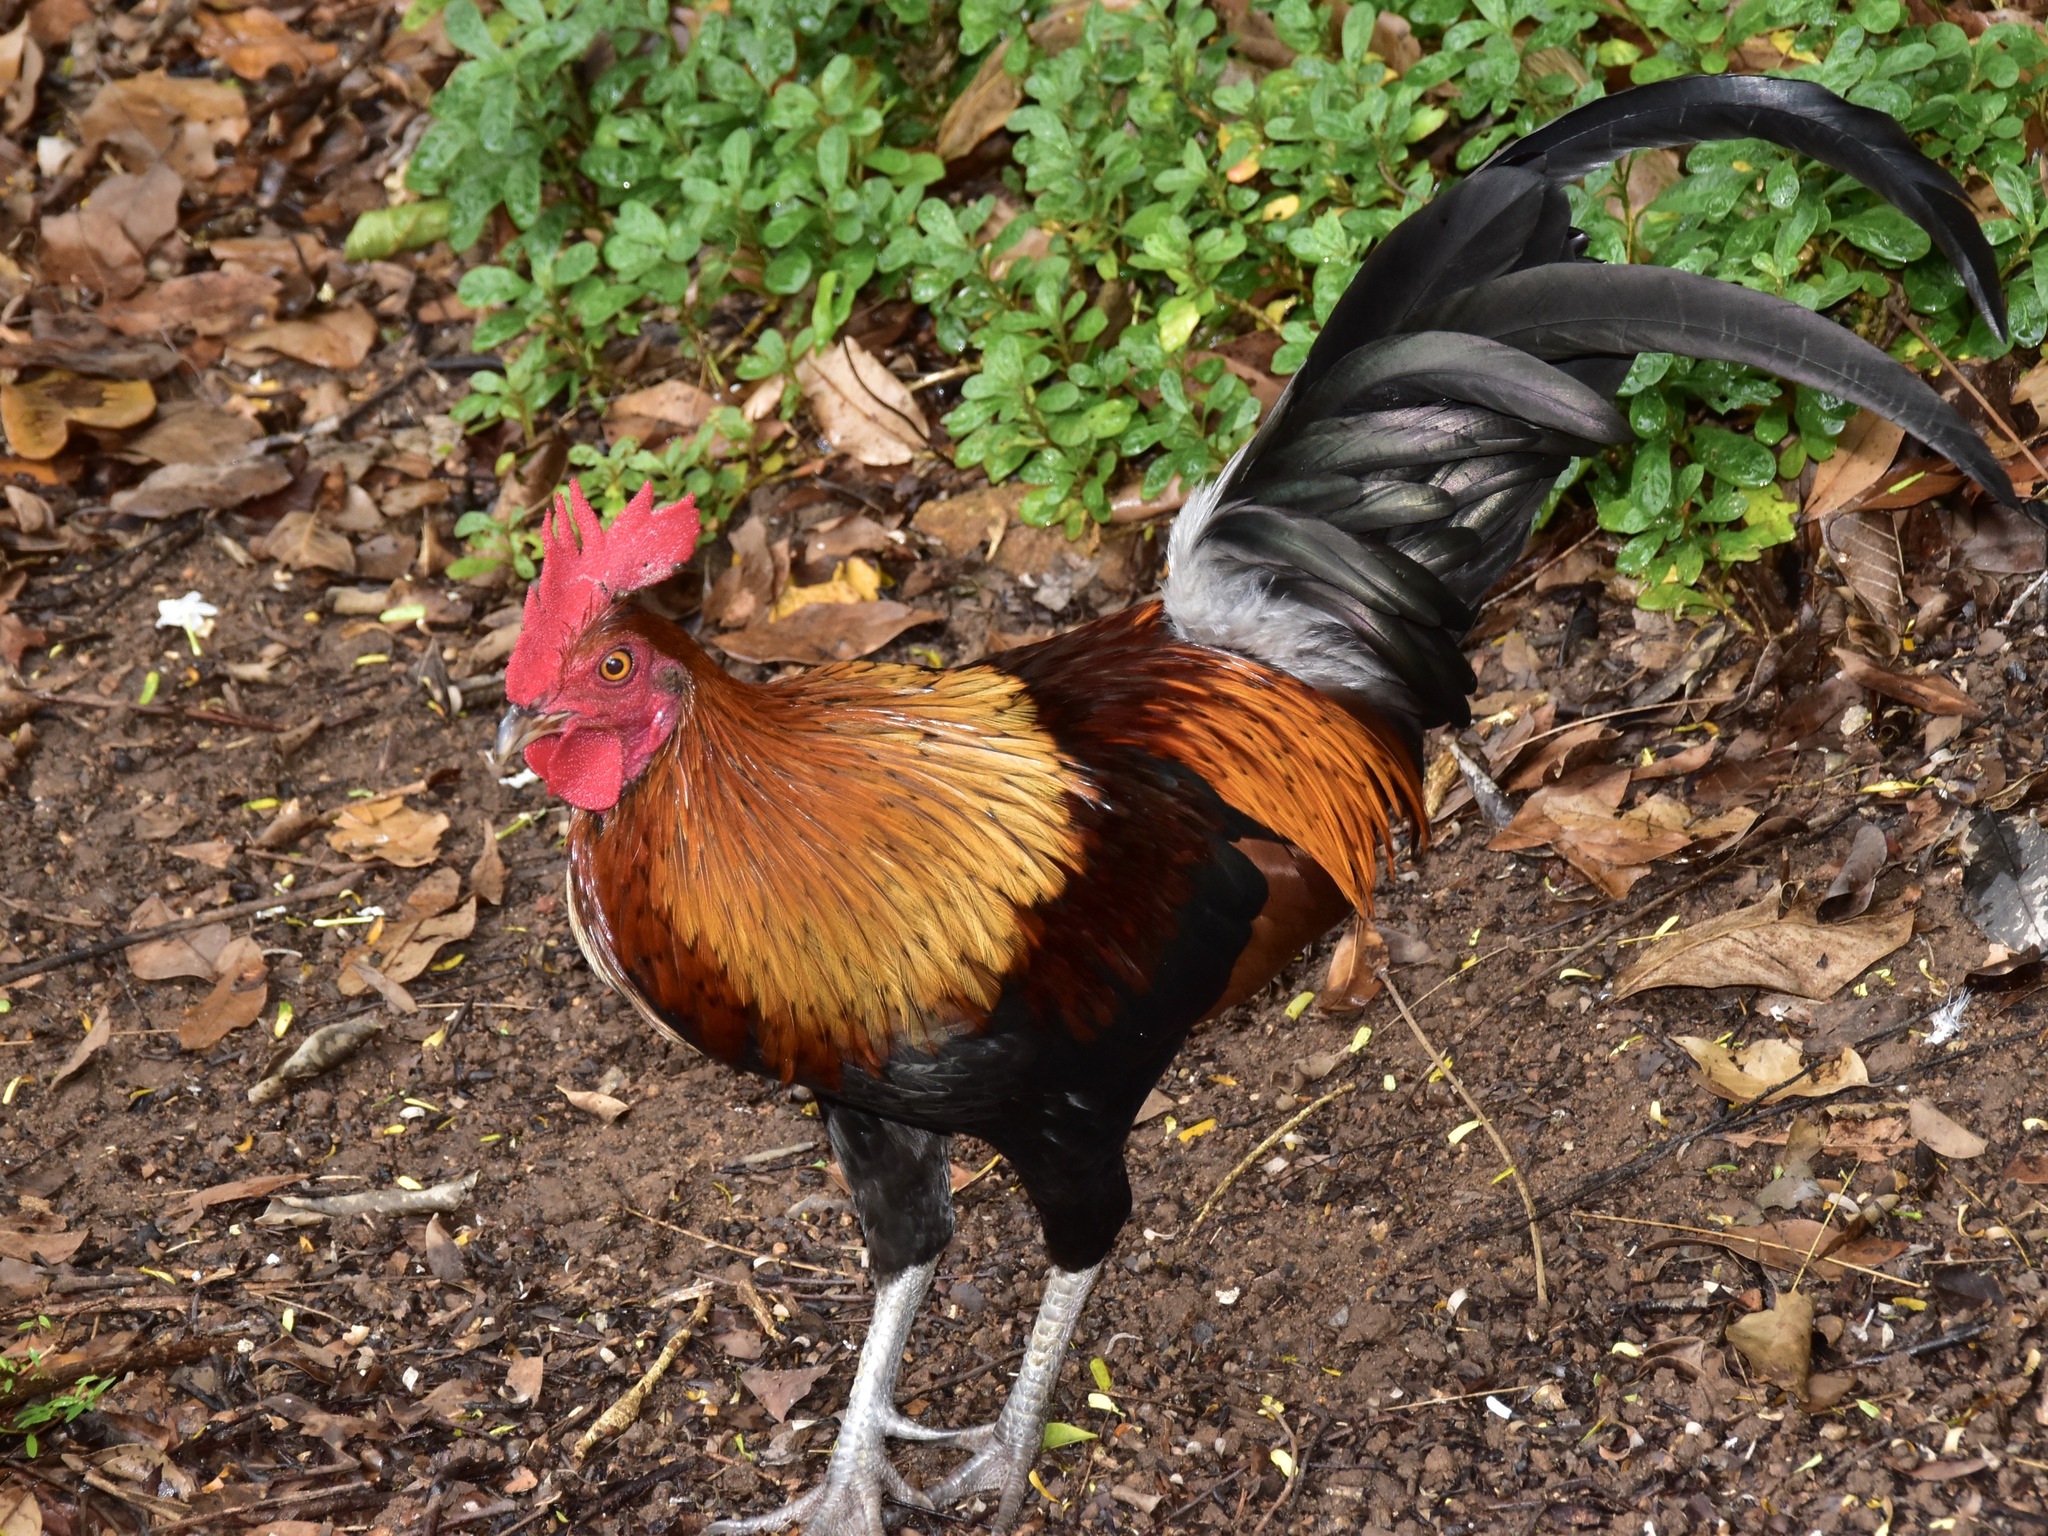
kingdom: Animalia
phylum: Chordata
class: Aves
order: Galliformes
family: Phasianidae
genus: Gallus
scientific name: Gallus gallus
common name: Red junglefowl
